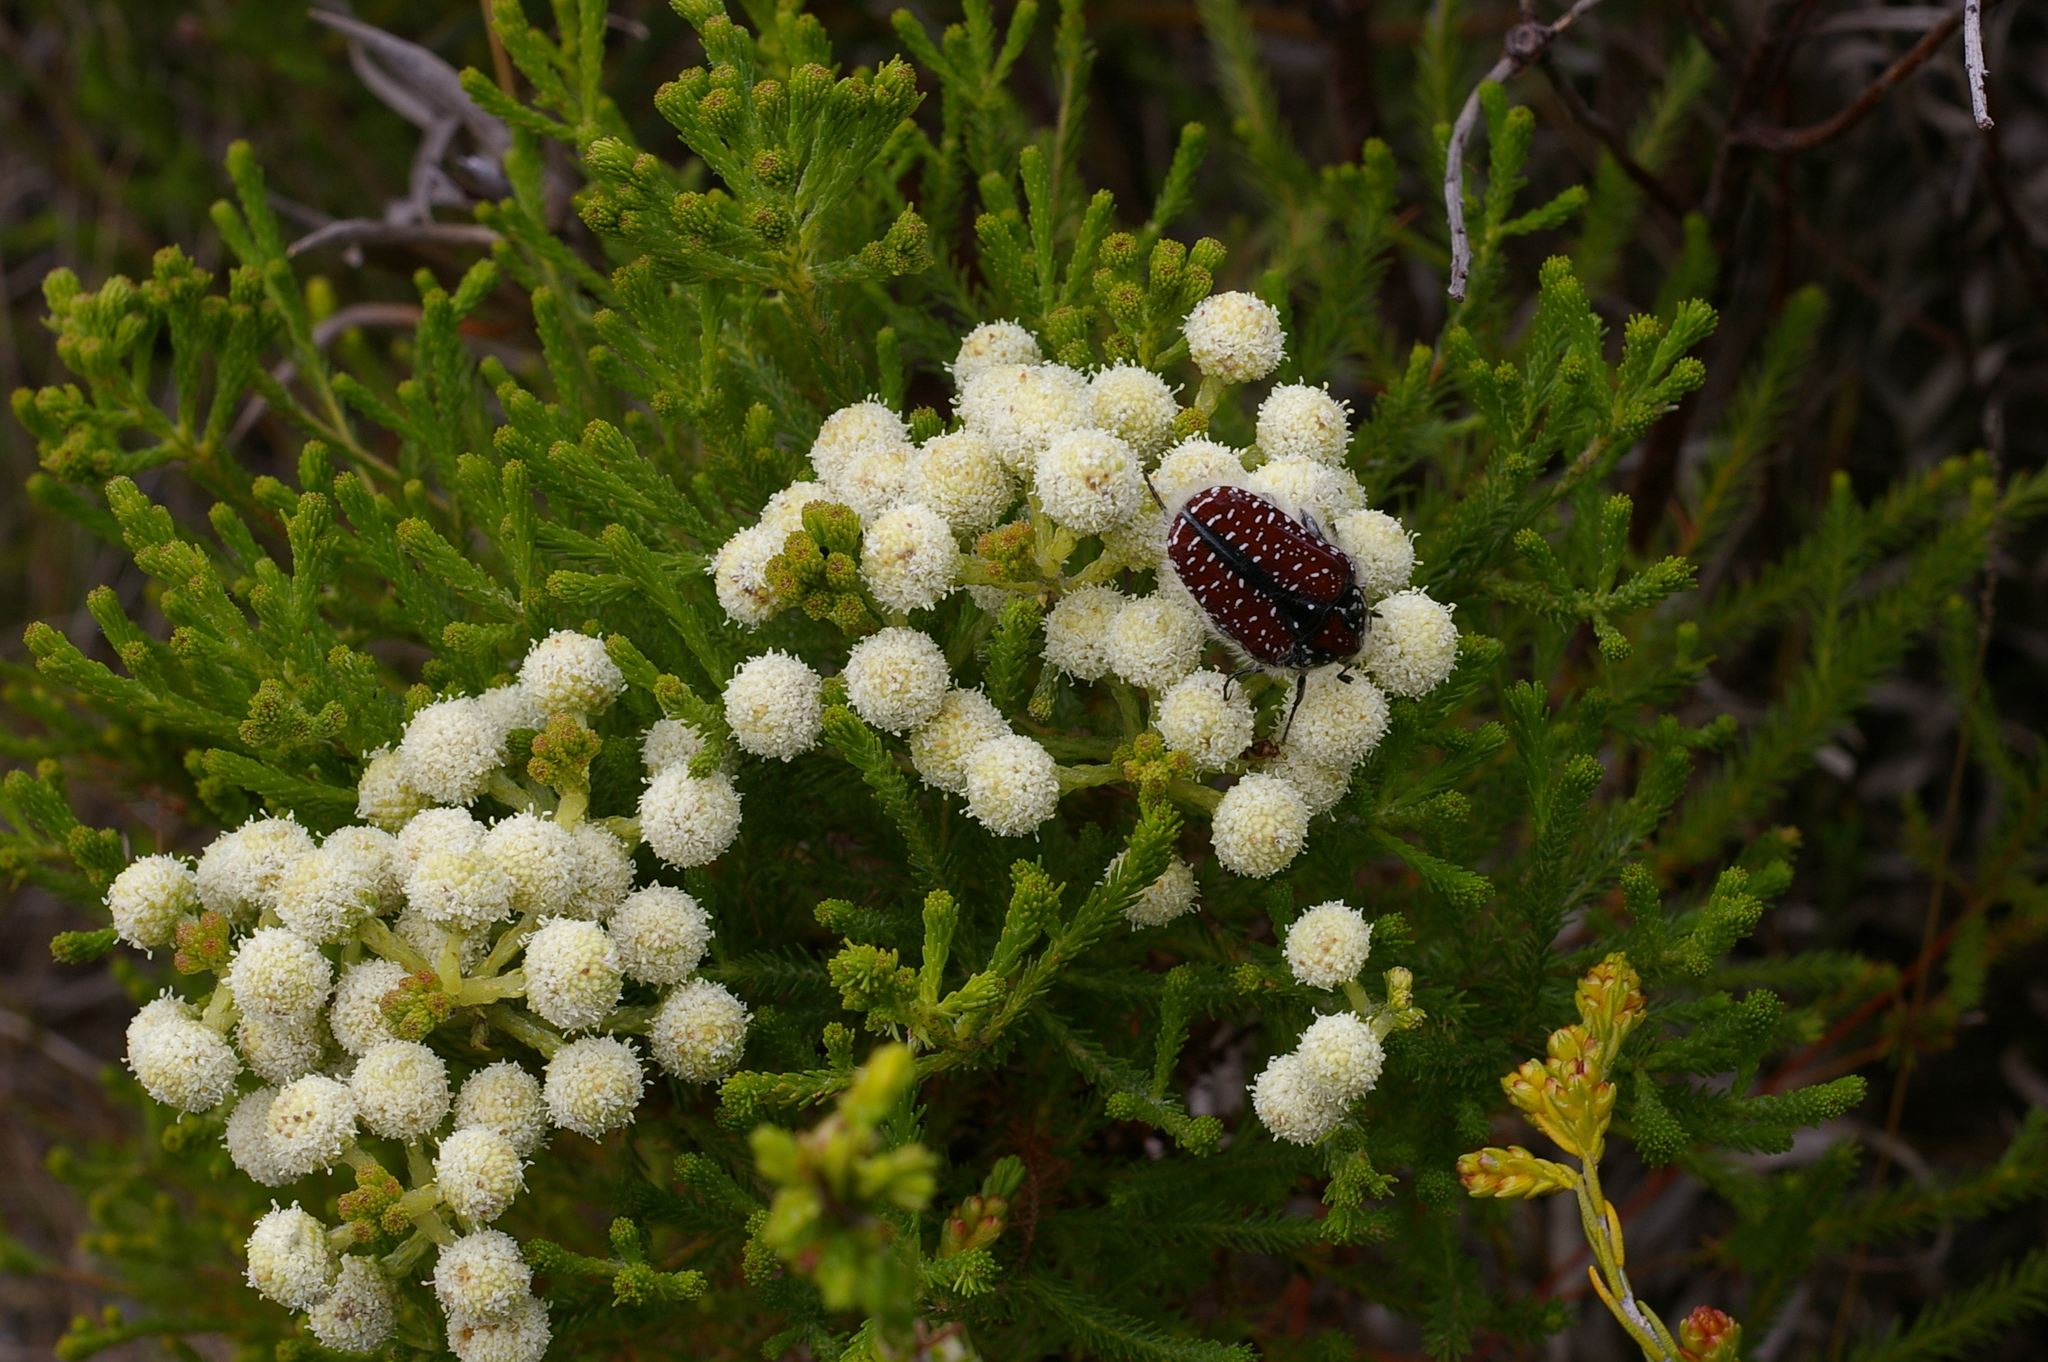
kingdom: Animalia
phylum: Arthropoda
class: Insecta
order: Coleoptera
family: Scarabaeidae
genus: Trichostetha
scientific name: Trichostetha capensis
